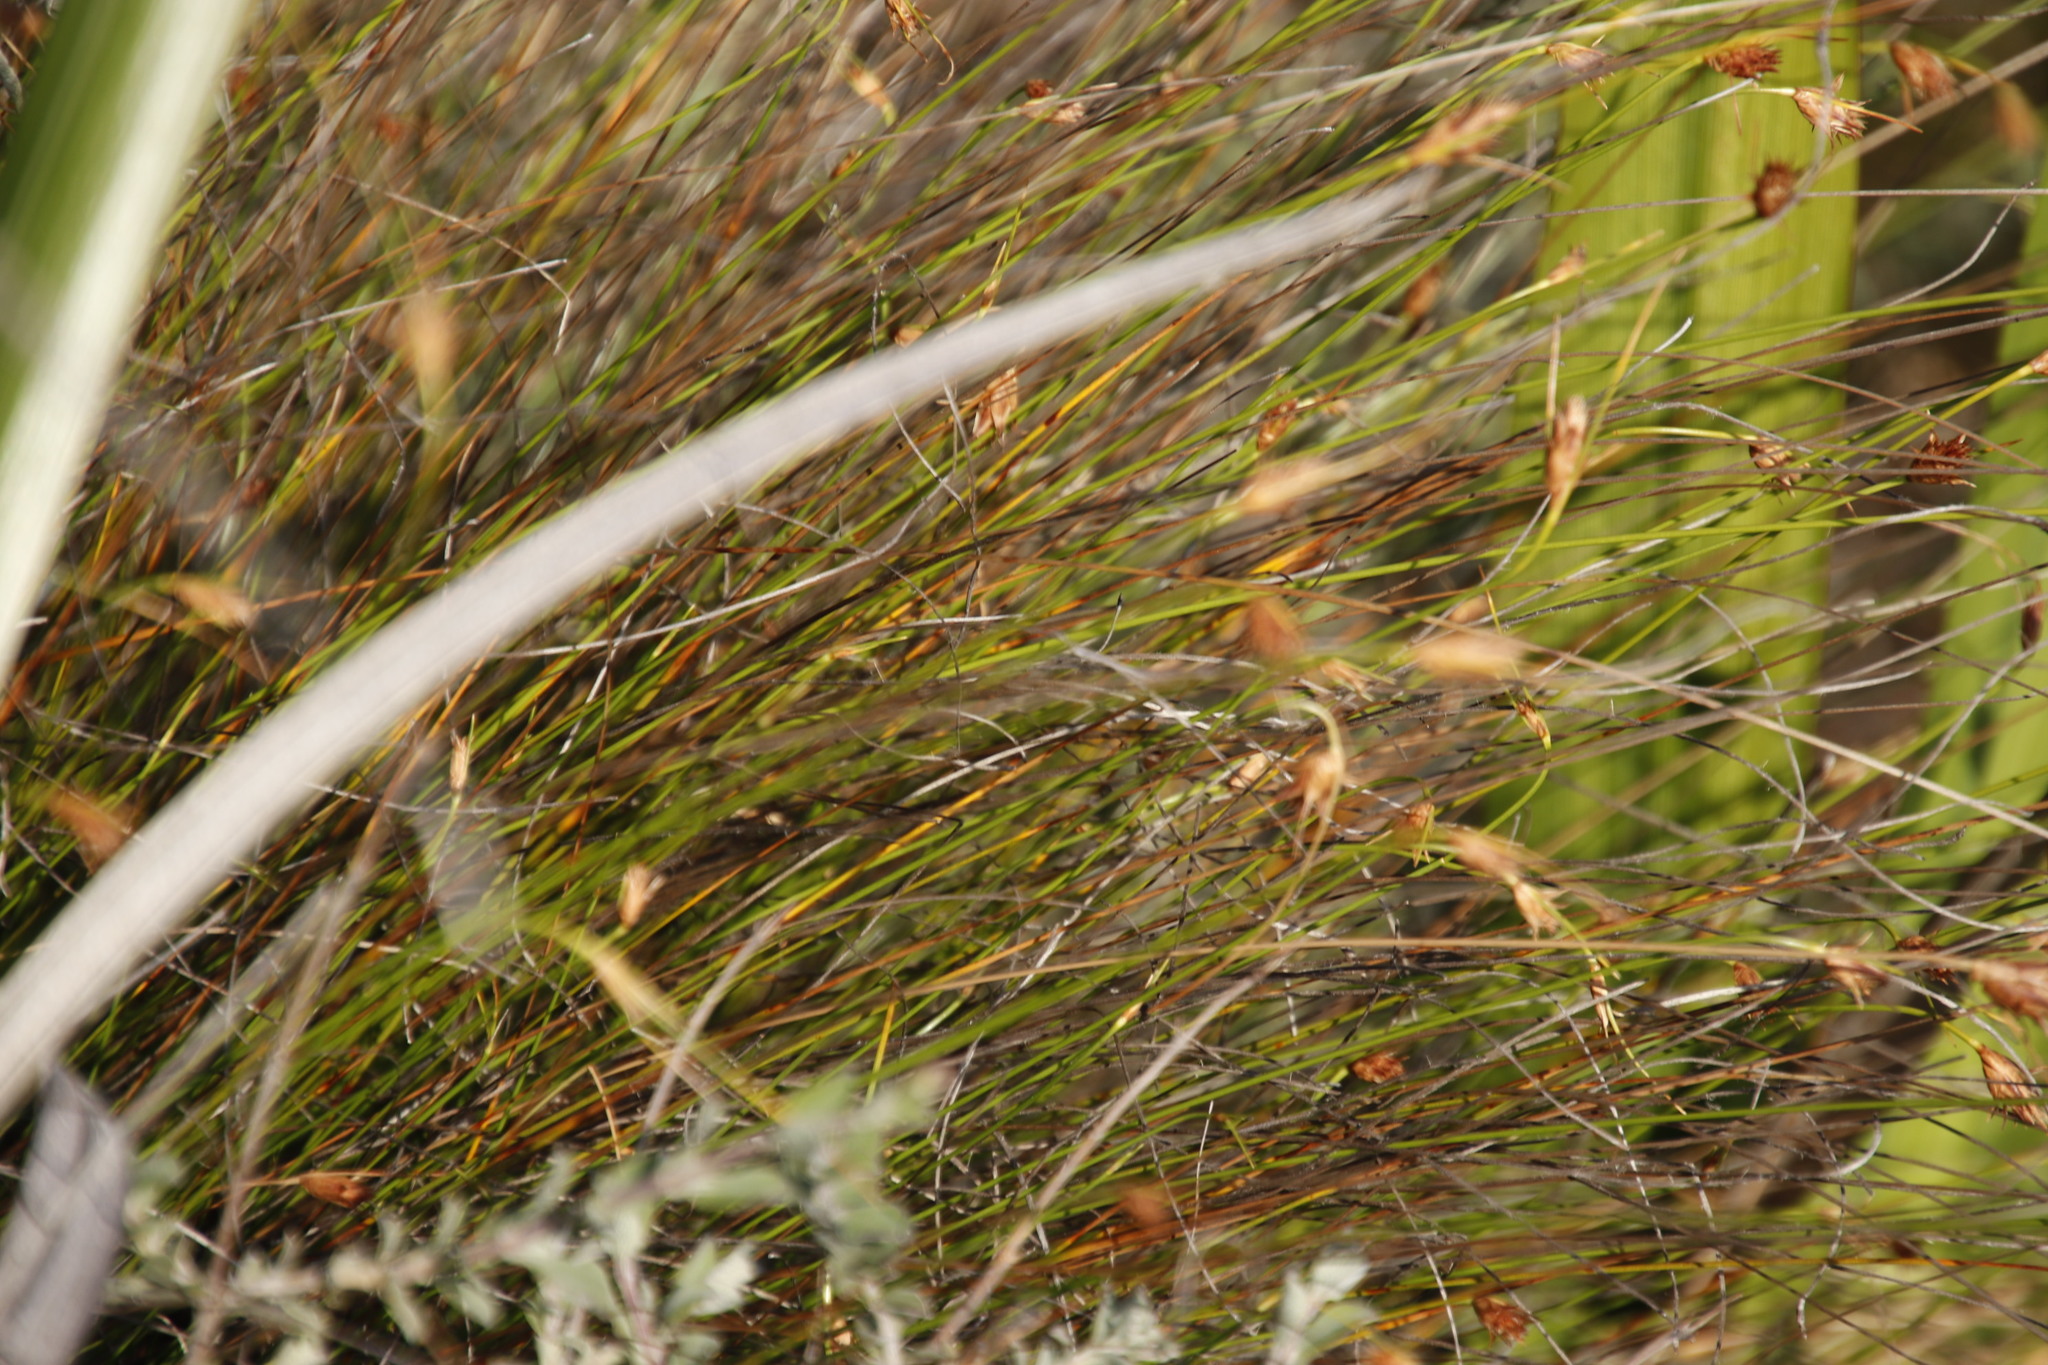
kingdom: Plantae
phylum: Tracheophyta
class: Liliopsida
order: Poales
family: Cyperaceae
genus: Ficinia
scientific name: Ficinia nigrescens
